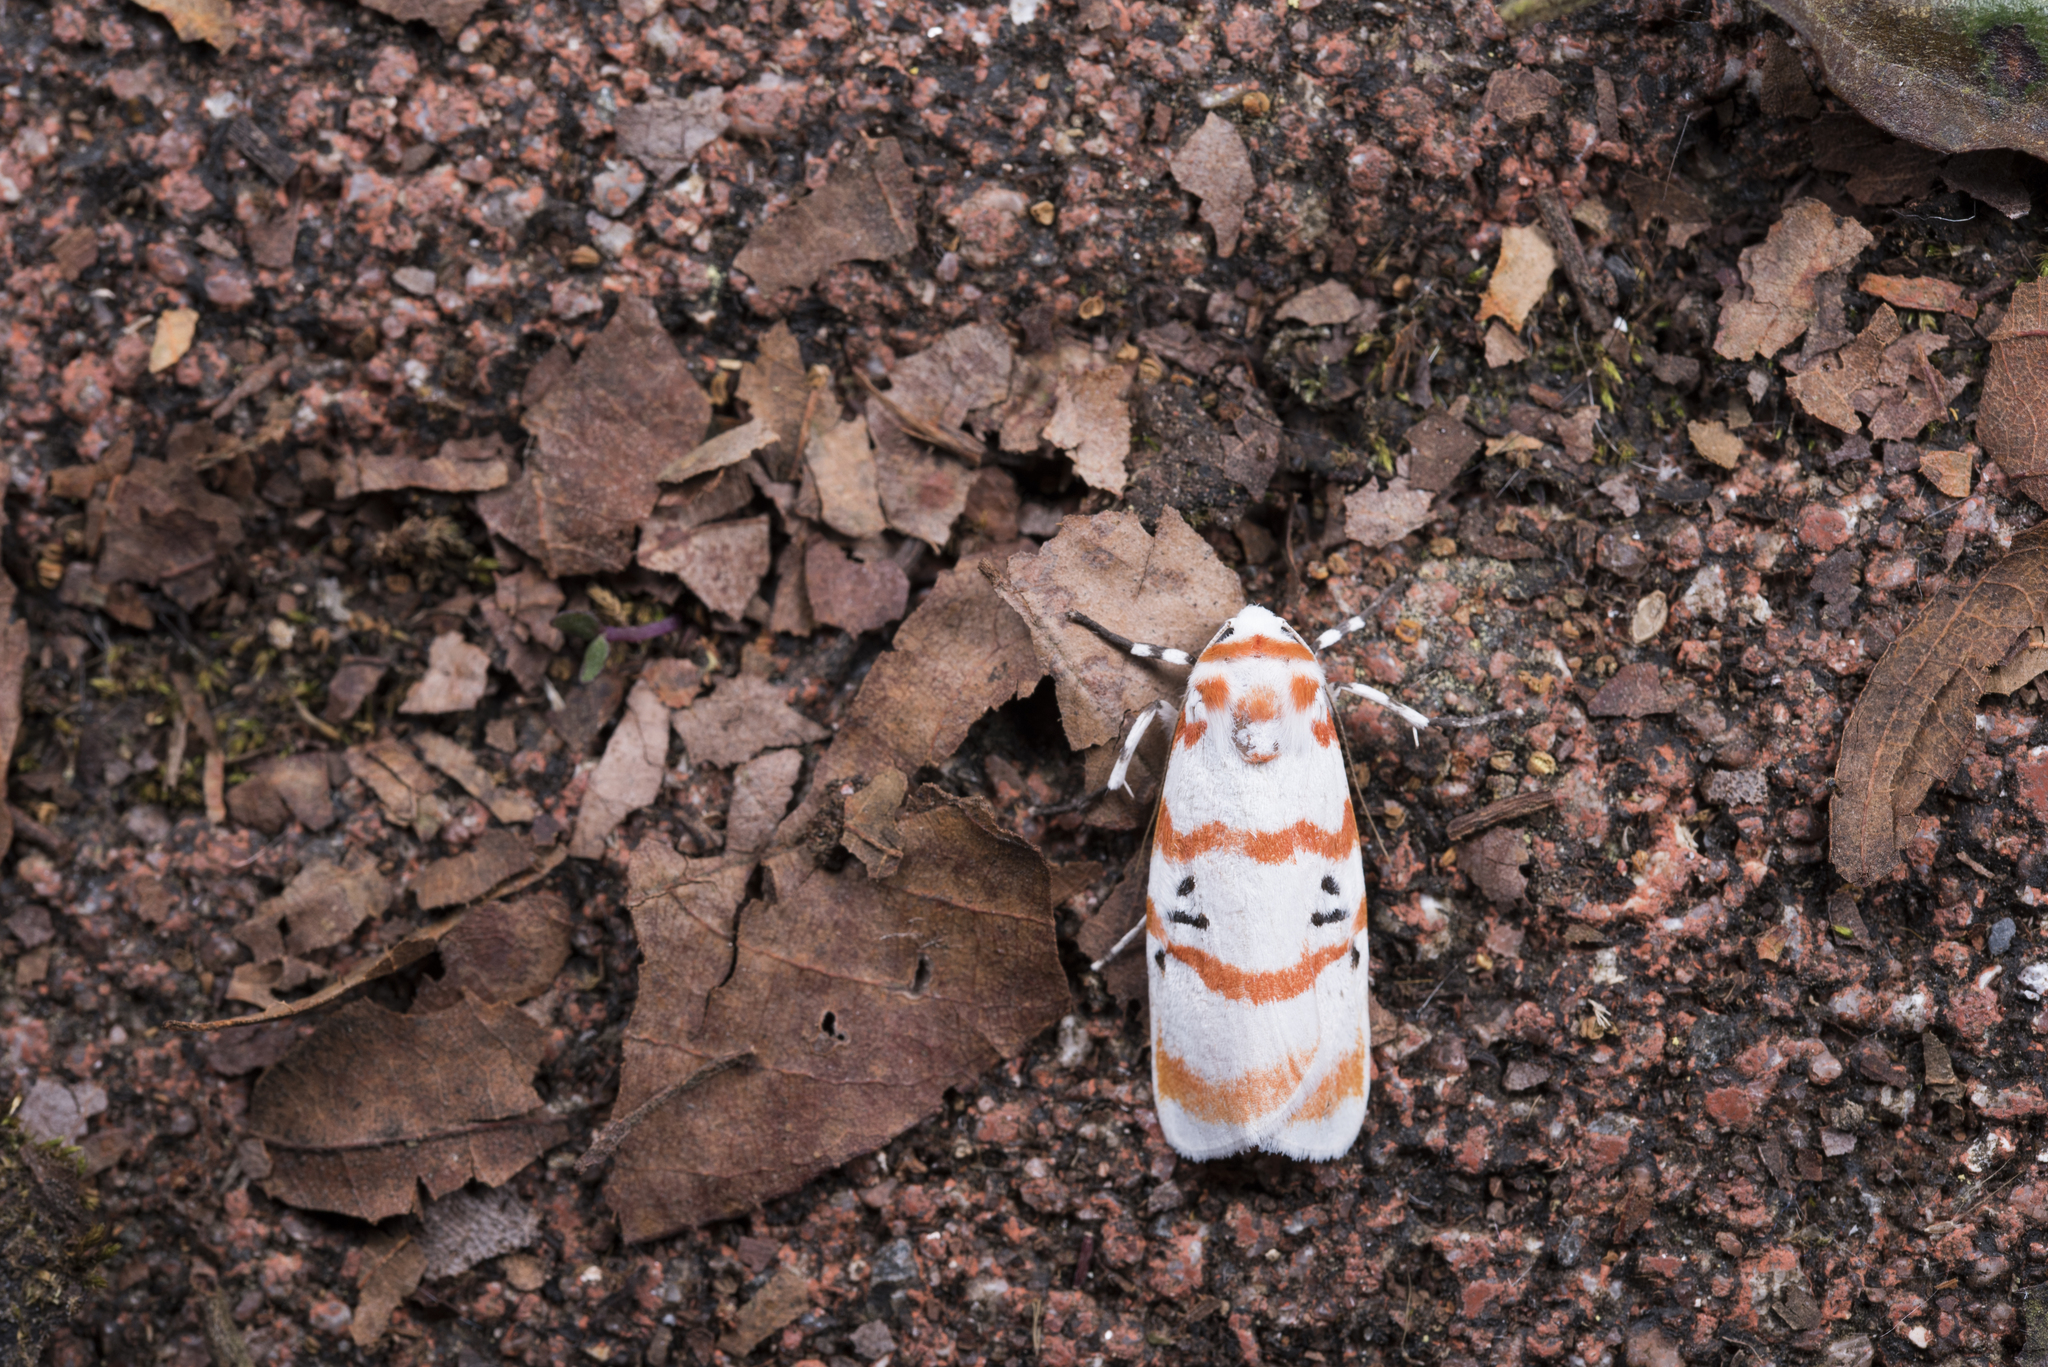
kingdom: Animalia
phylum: Arthropoda
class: Insecta
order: Lepidoptera
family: Erebidae
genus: Cyana
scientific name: Cyana subalba
